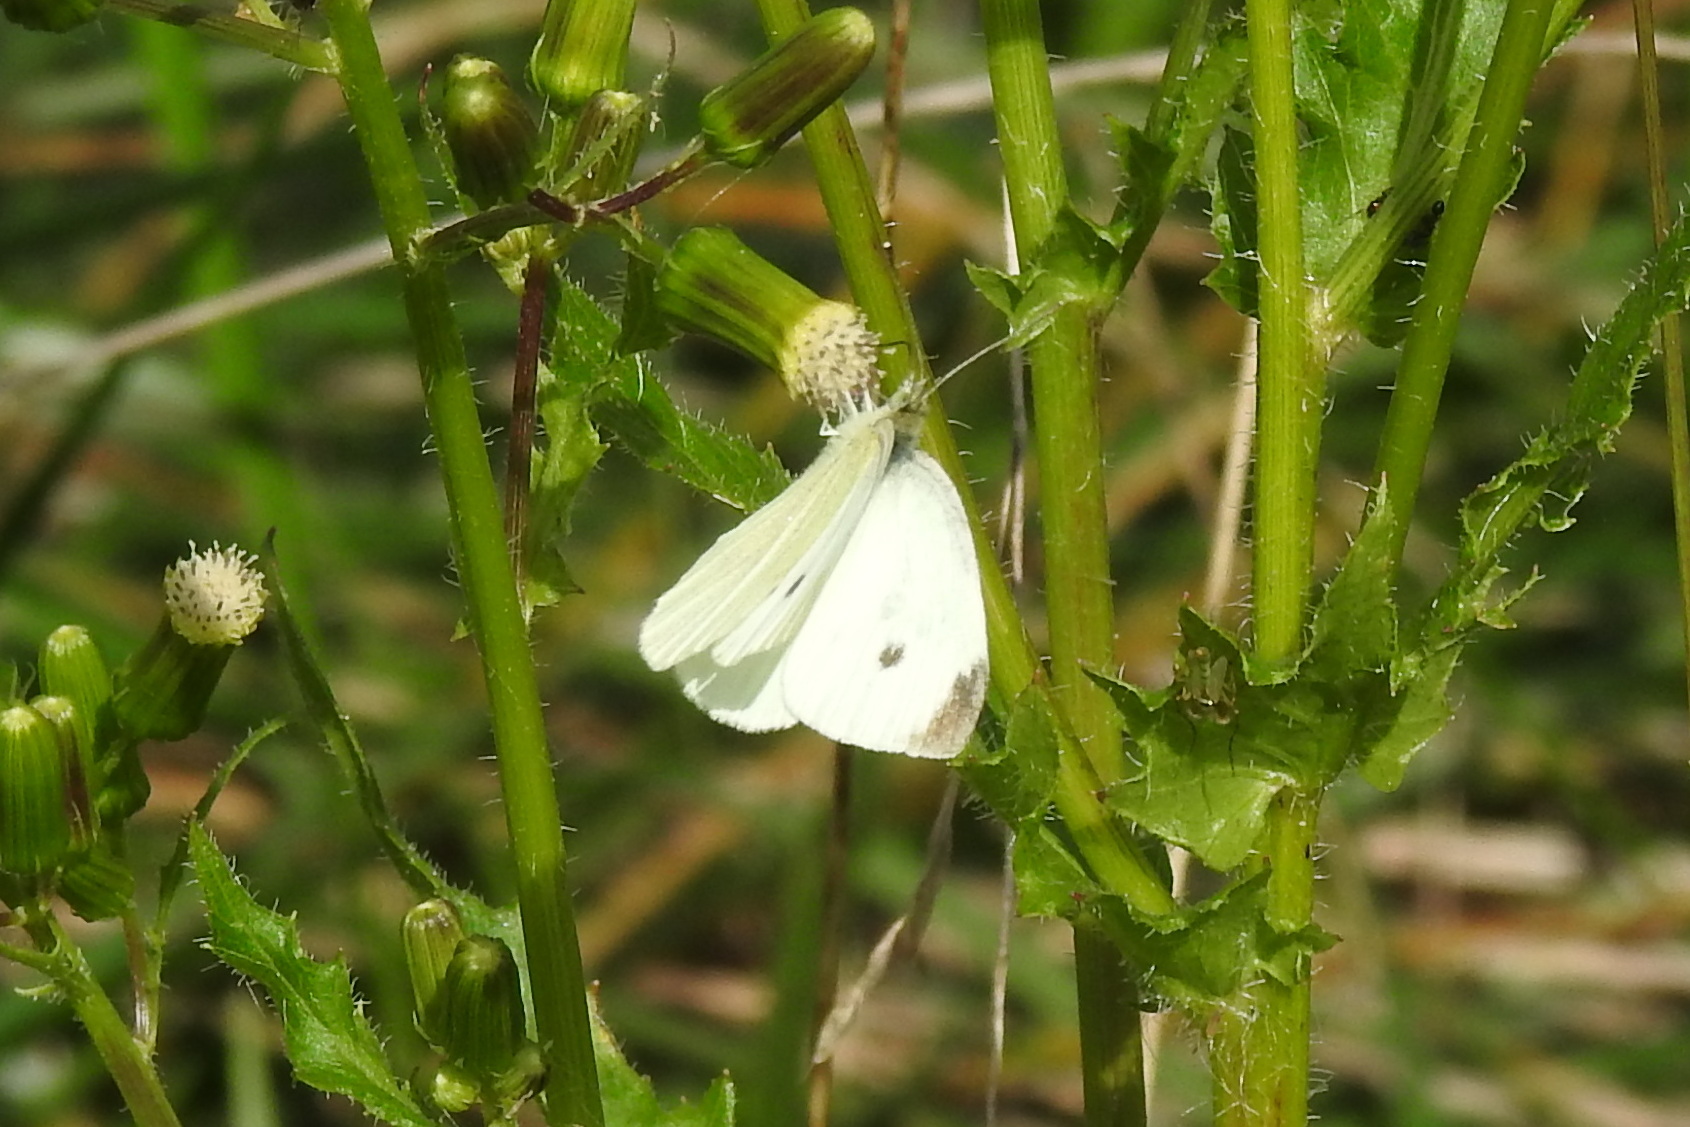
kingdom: Animalia
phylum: Arthropoda
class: Insecta
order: Lepidoptera
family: Pieridae
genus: Pieris
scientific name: Pieris rapae
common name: Small white
